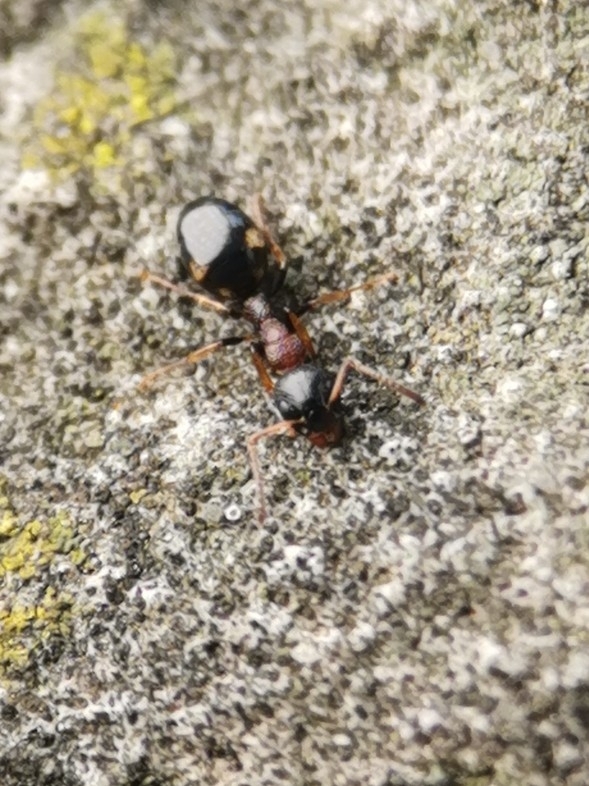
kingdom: Animalia
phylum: Arthropoda
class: Insecta
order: Hymenoptera
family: Formicidae
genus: Dolichoderus
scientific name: Dolichoderus quadripunctatus
